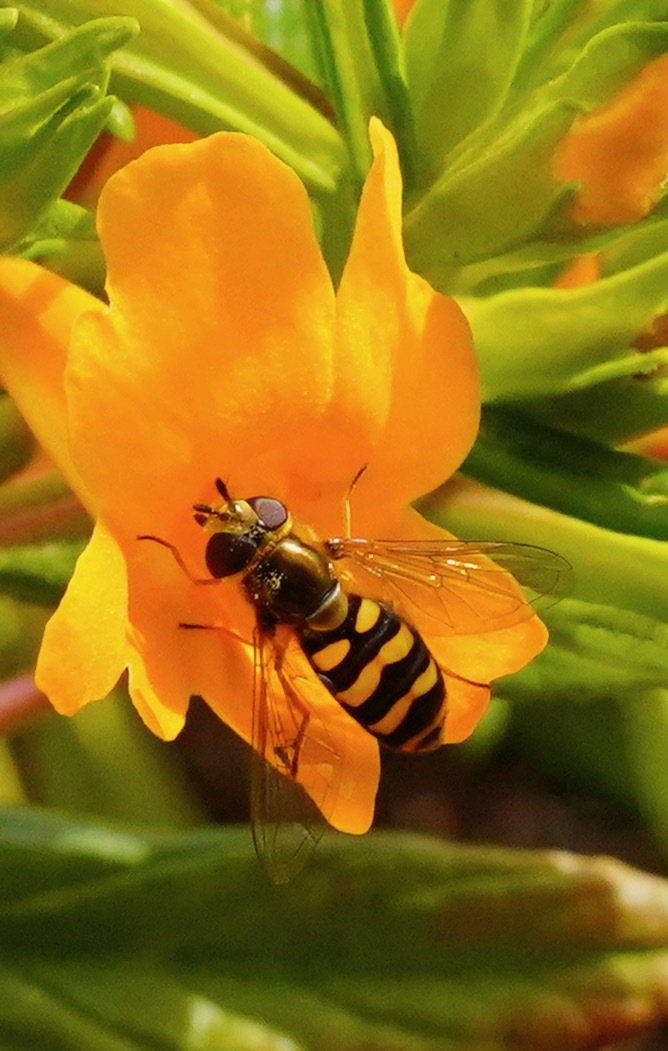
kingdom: Animalia
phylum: Arthropoda
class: Insecta
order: Diptera
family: Syrphidae
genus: Eupeodes
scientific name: Eupeodes fumipennis
